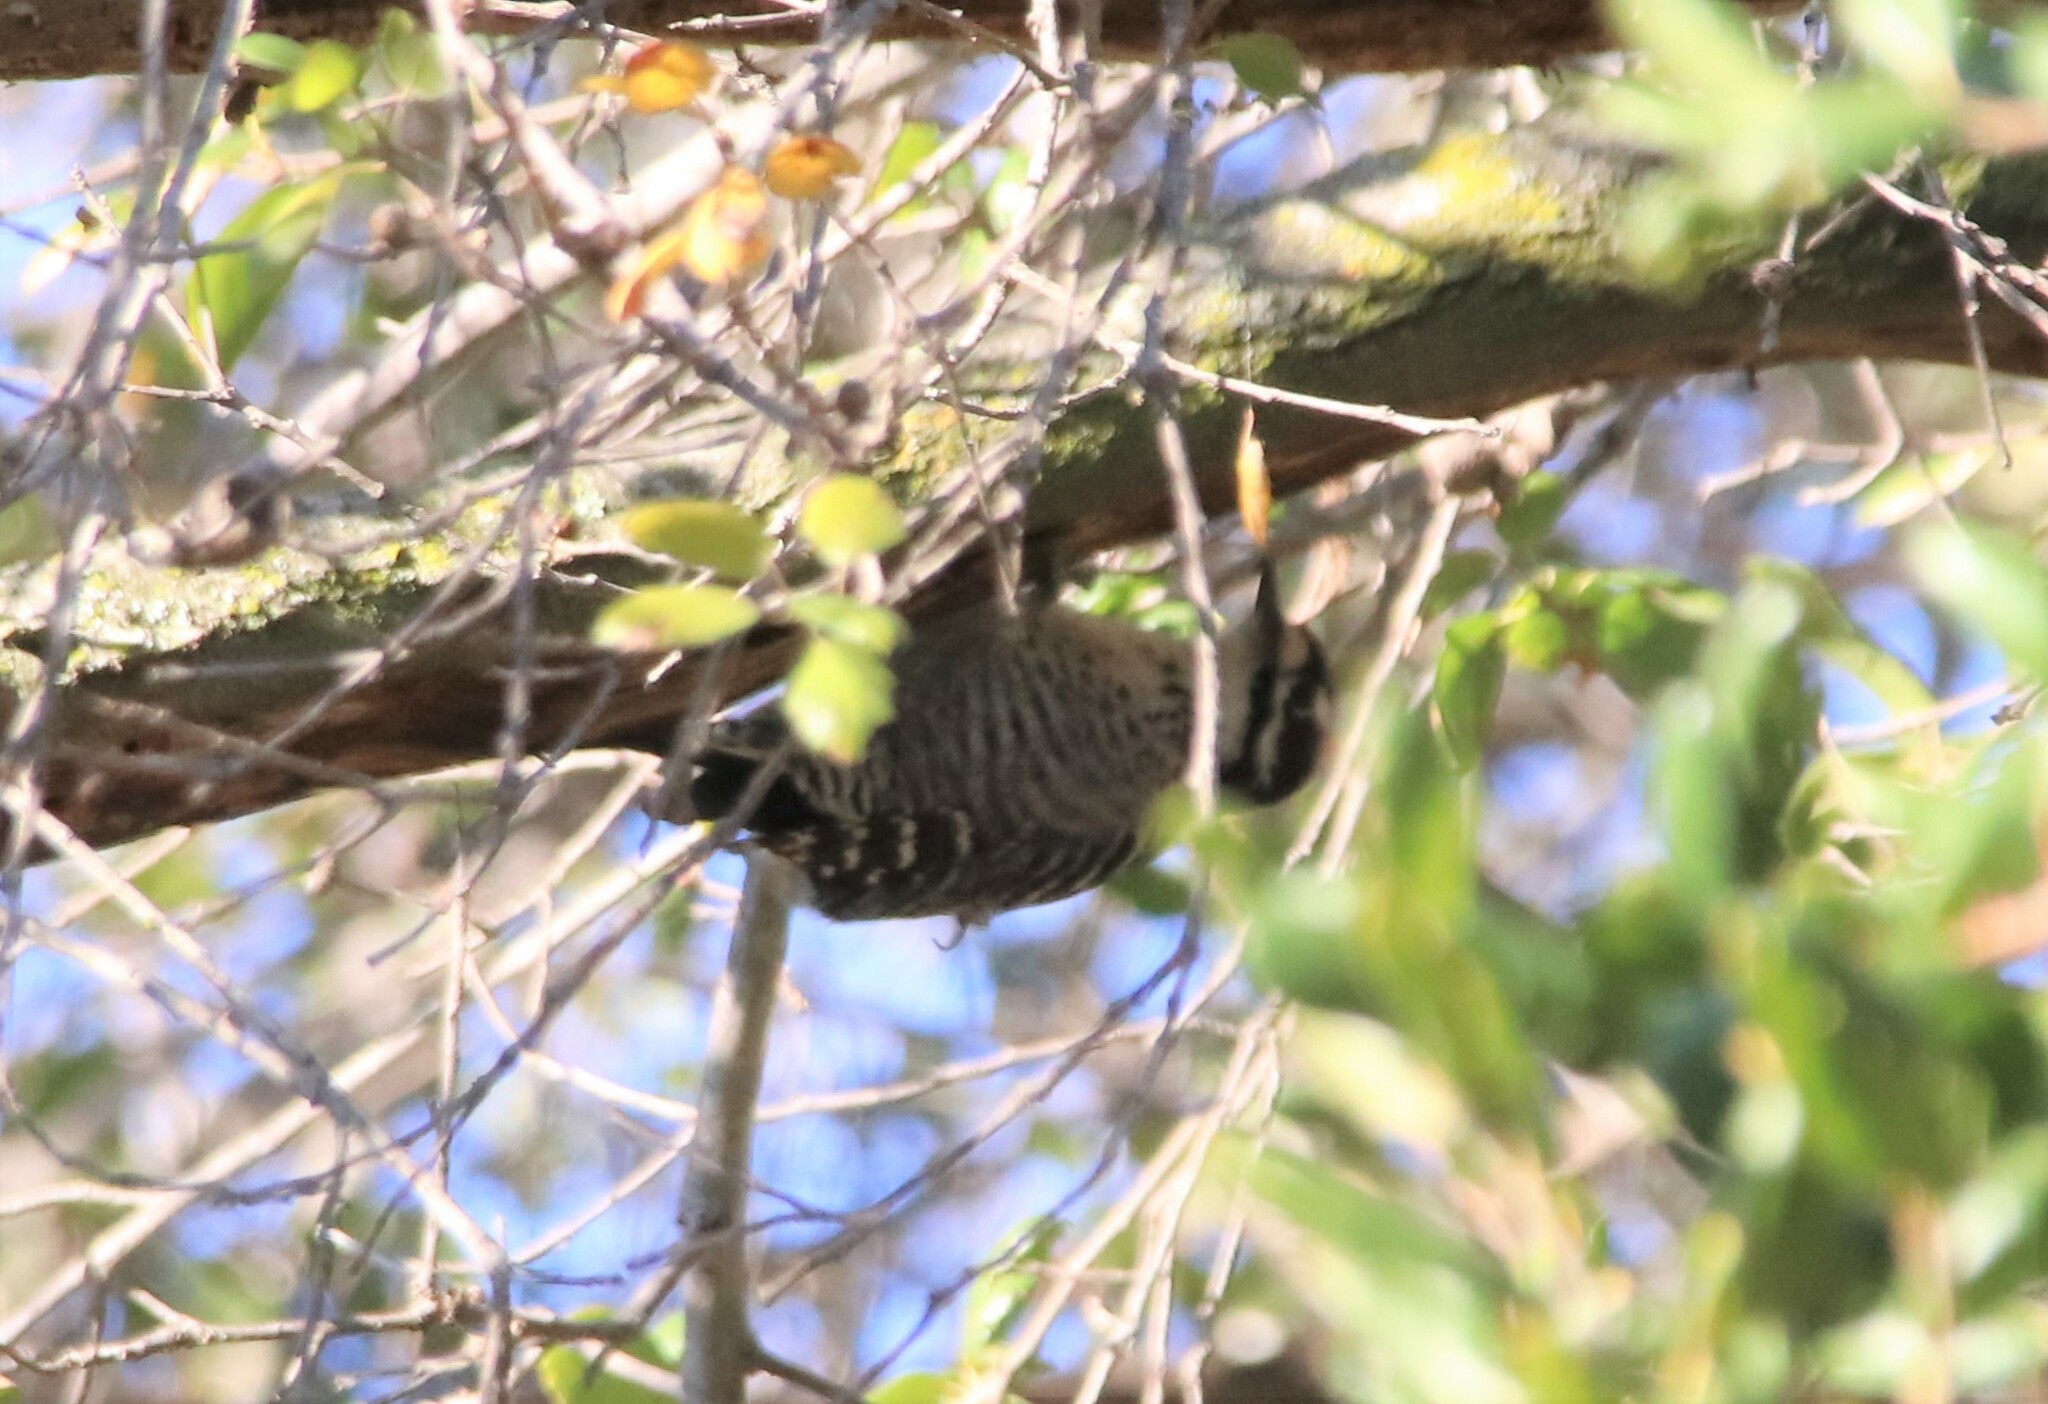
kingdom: Animalia
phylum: Chordata
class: Aves
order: Piciformes
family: Picidae
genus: Dryobates
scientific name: Dryobates nuttallii
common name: Nuttall's woodpecker
